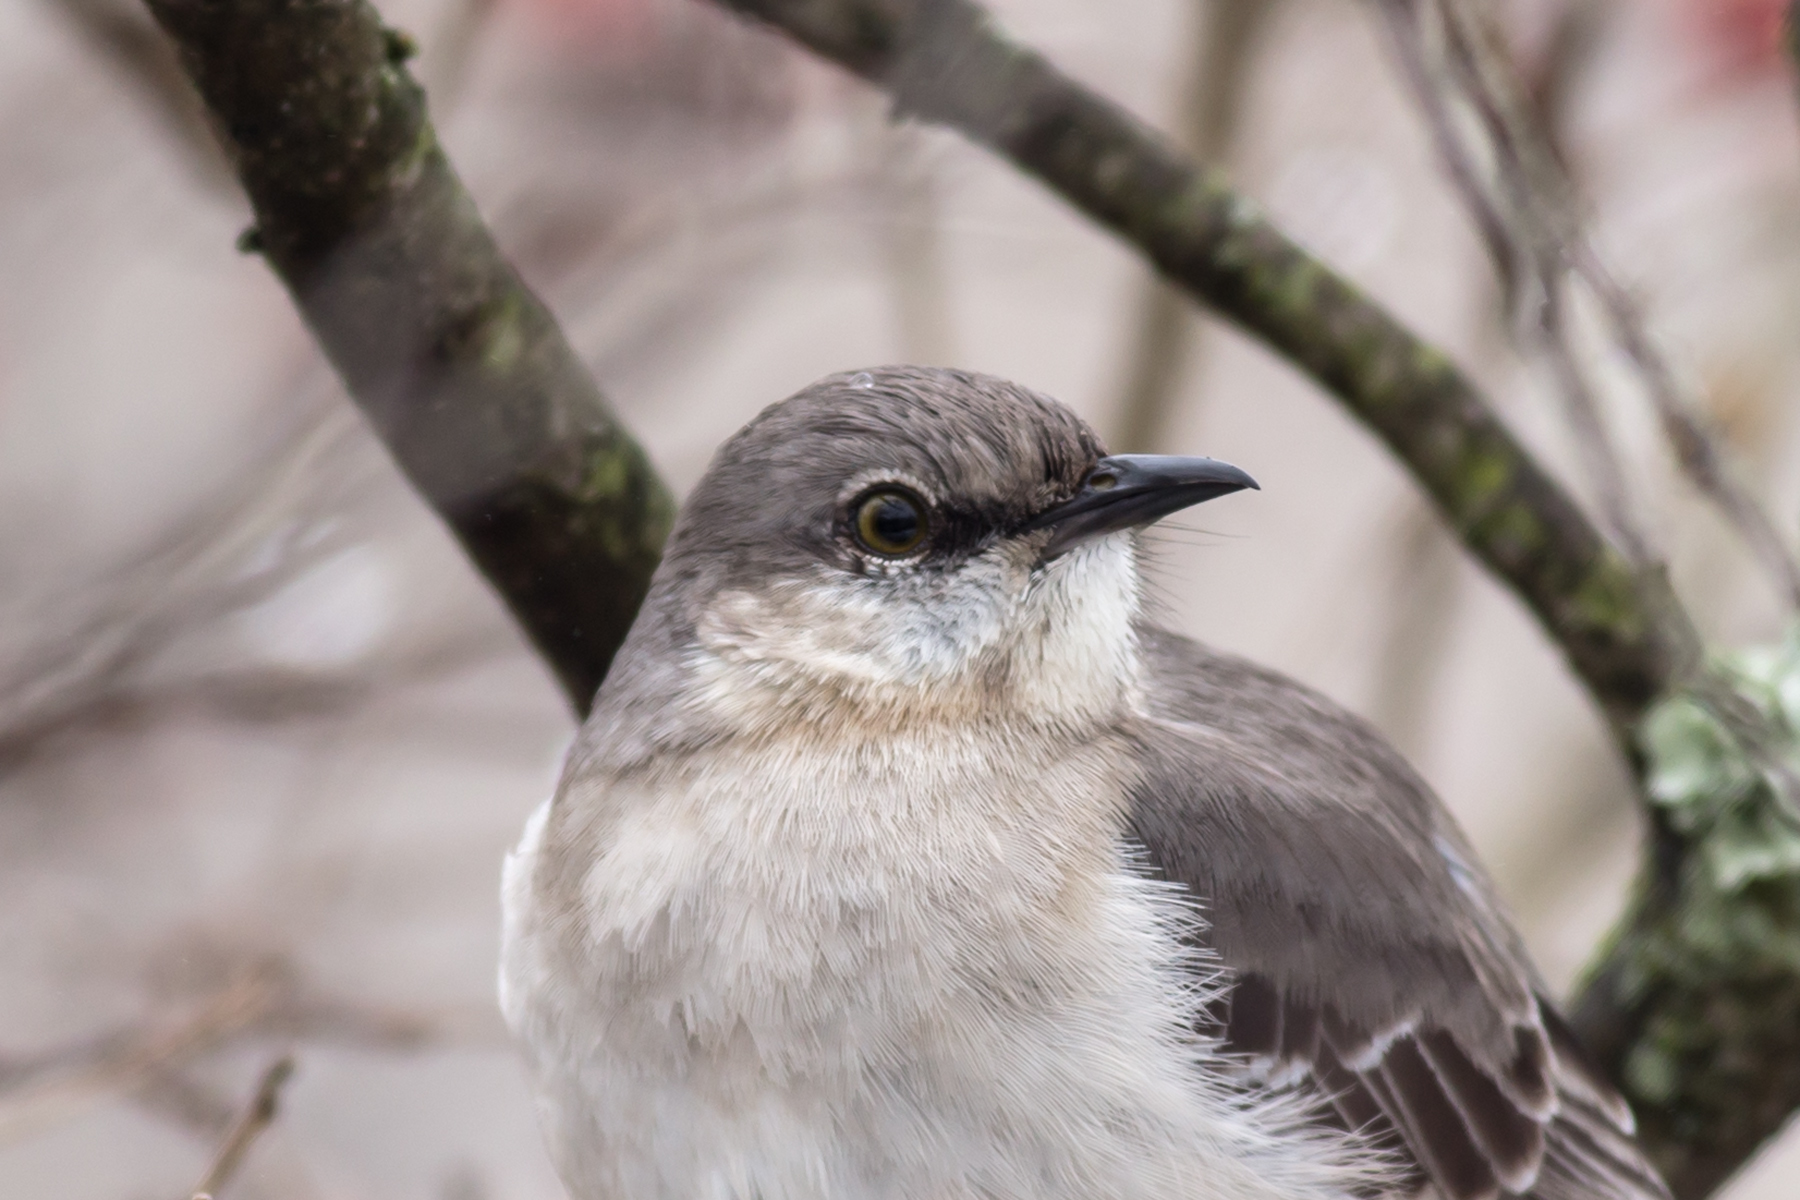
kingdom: Animalia
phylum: Chordata
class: Aves
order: Passeriformes
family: Mimidae
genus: Mimus
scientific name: Mimus polyglottos
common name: Northern mockingbird
